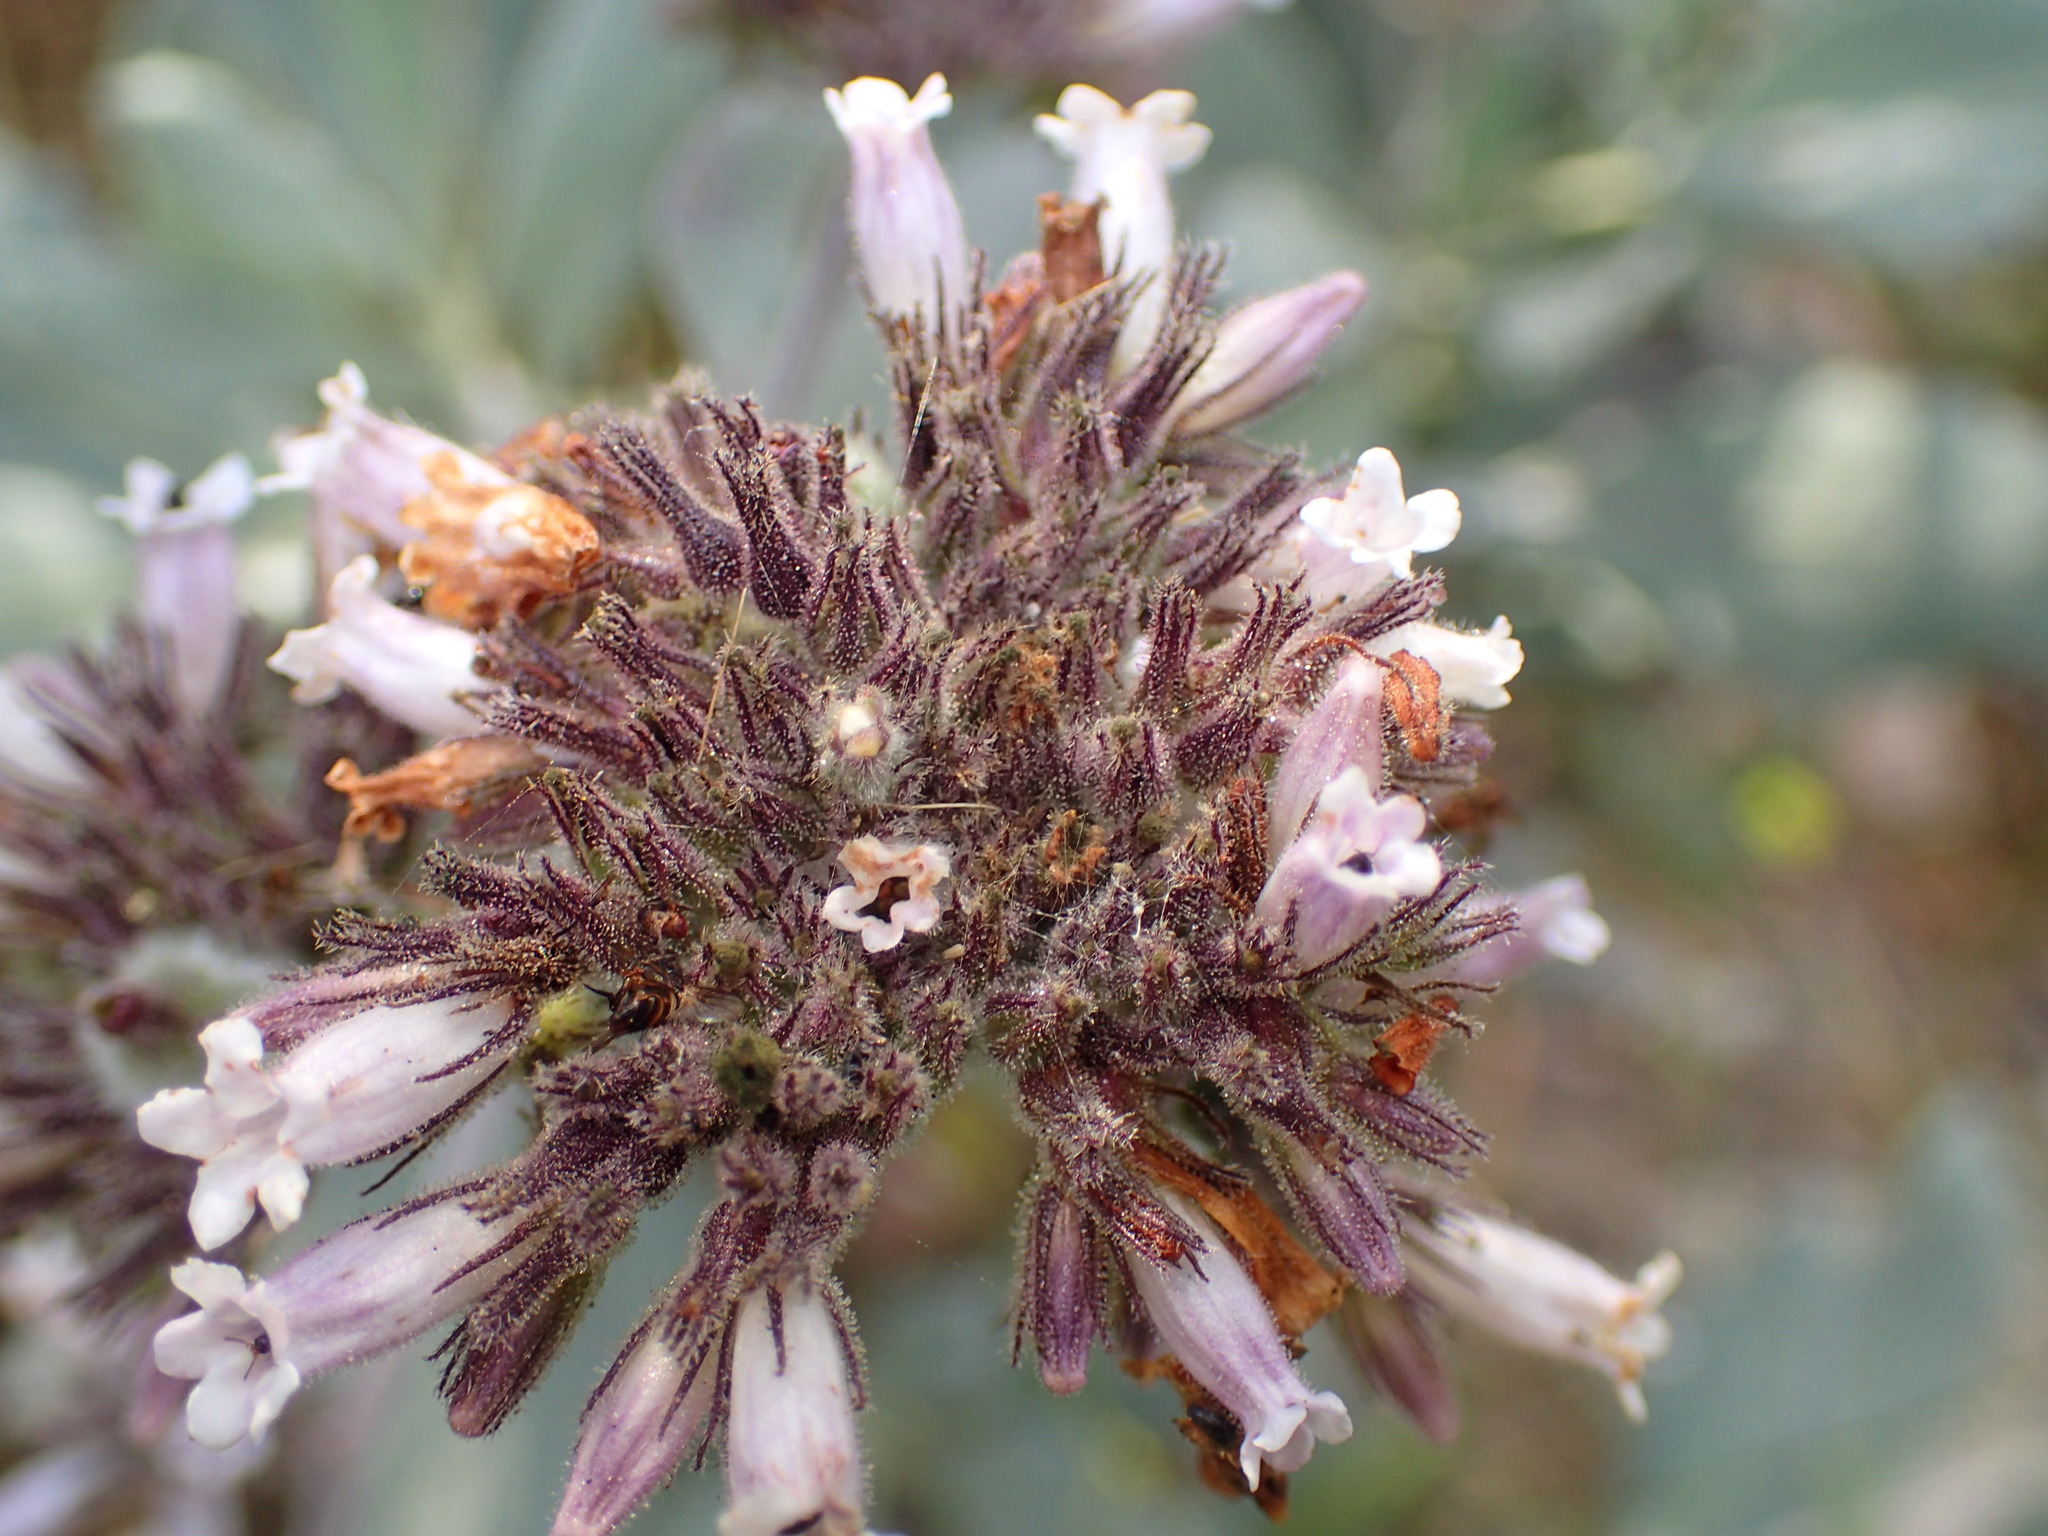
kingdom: Plantae
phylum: Tracheophyta
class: Magnoliopsida
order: Boraginales
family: Namaceae
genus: Eriodictyon
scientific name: Eriodictyon traskiae
